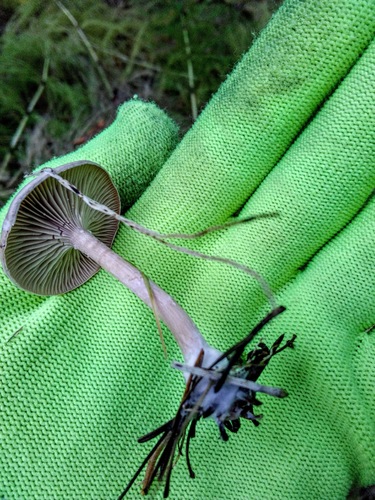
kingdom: Fungi
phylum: Basidiomycota
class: Agaricomycetes
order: Agaricales
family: Tricholomataceae
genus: Clitocybe
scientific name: Clitocybe
